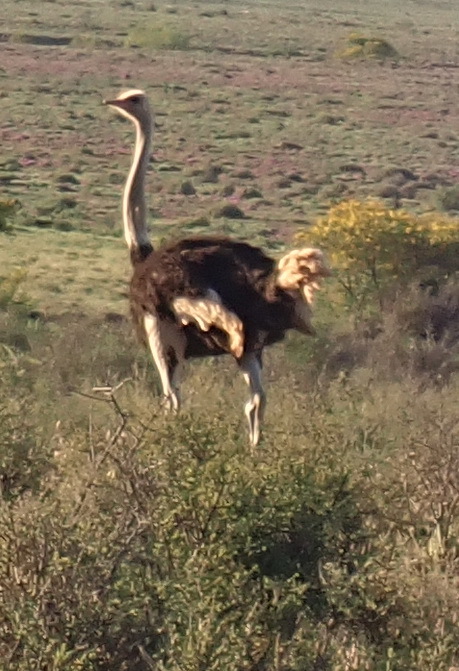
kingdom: Animalia
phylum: Chordata
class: Aves
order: Struthioniformes
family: Struthionidae
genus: Struthio
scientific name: Struthio camelus
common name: Common ostrich
